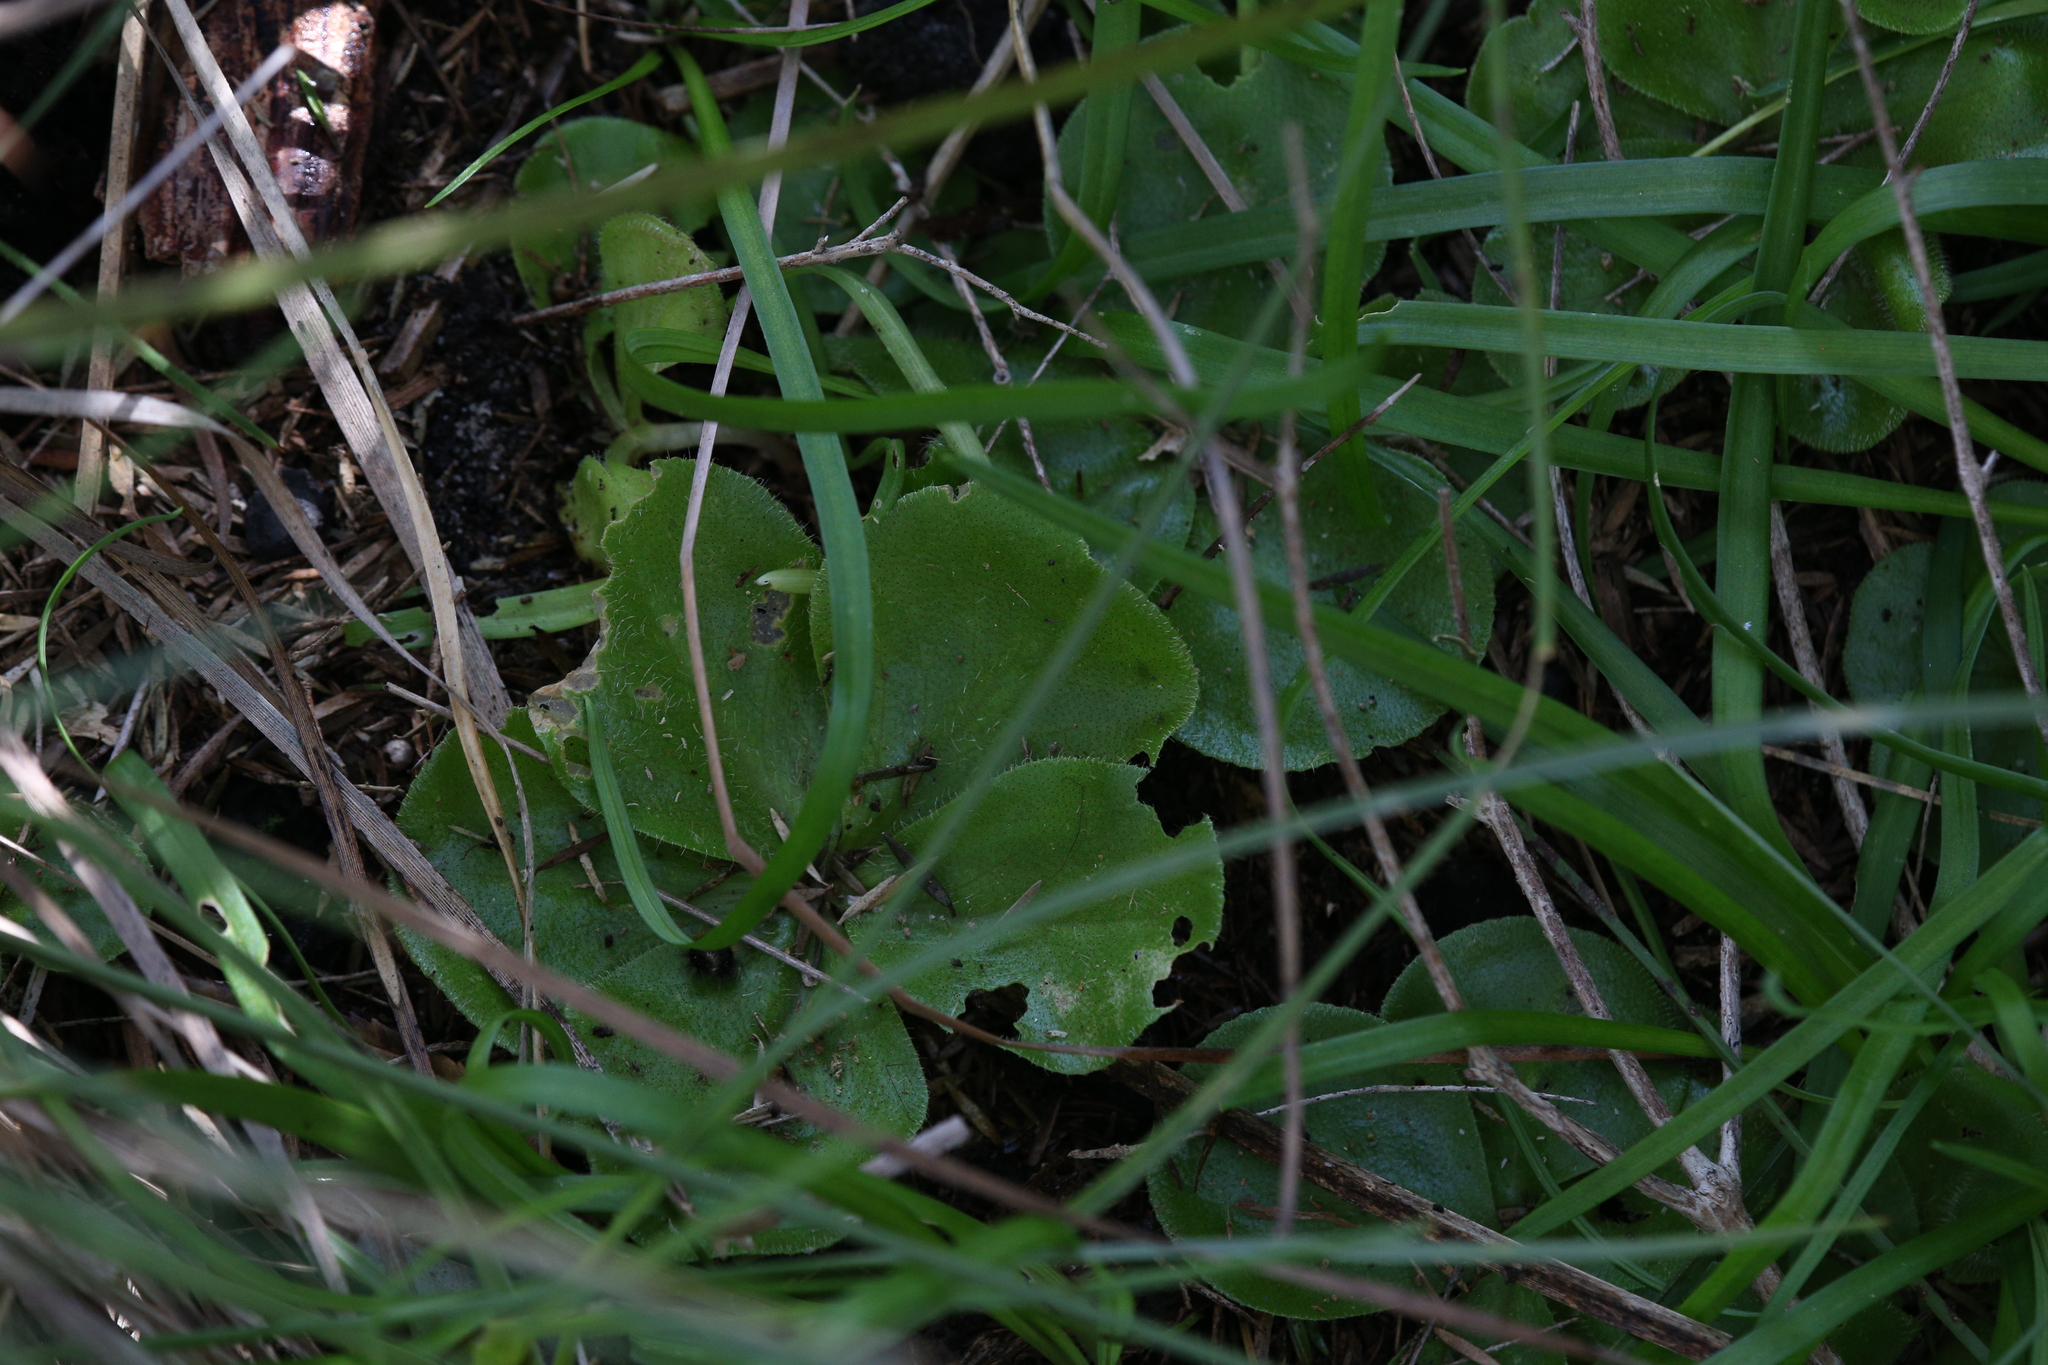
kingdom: Plantae
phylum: Tracheophyta
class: Magnoliopsida
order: Caryophyllales
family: Droseraceae
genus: Drosera
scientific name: Drosera erythrorhiza
